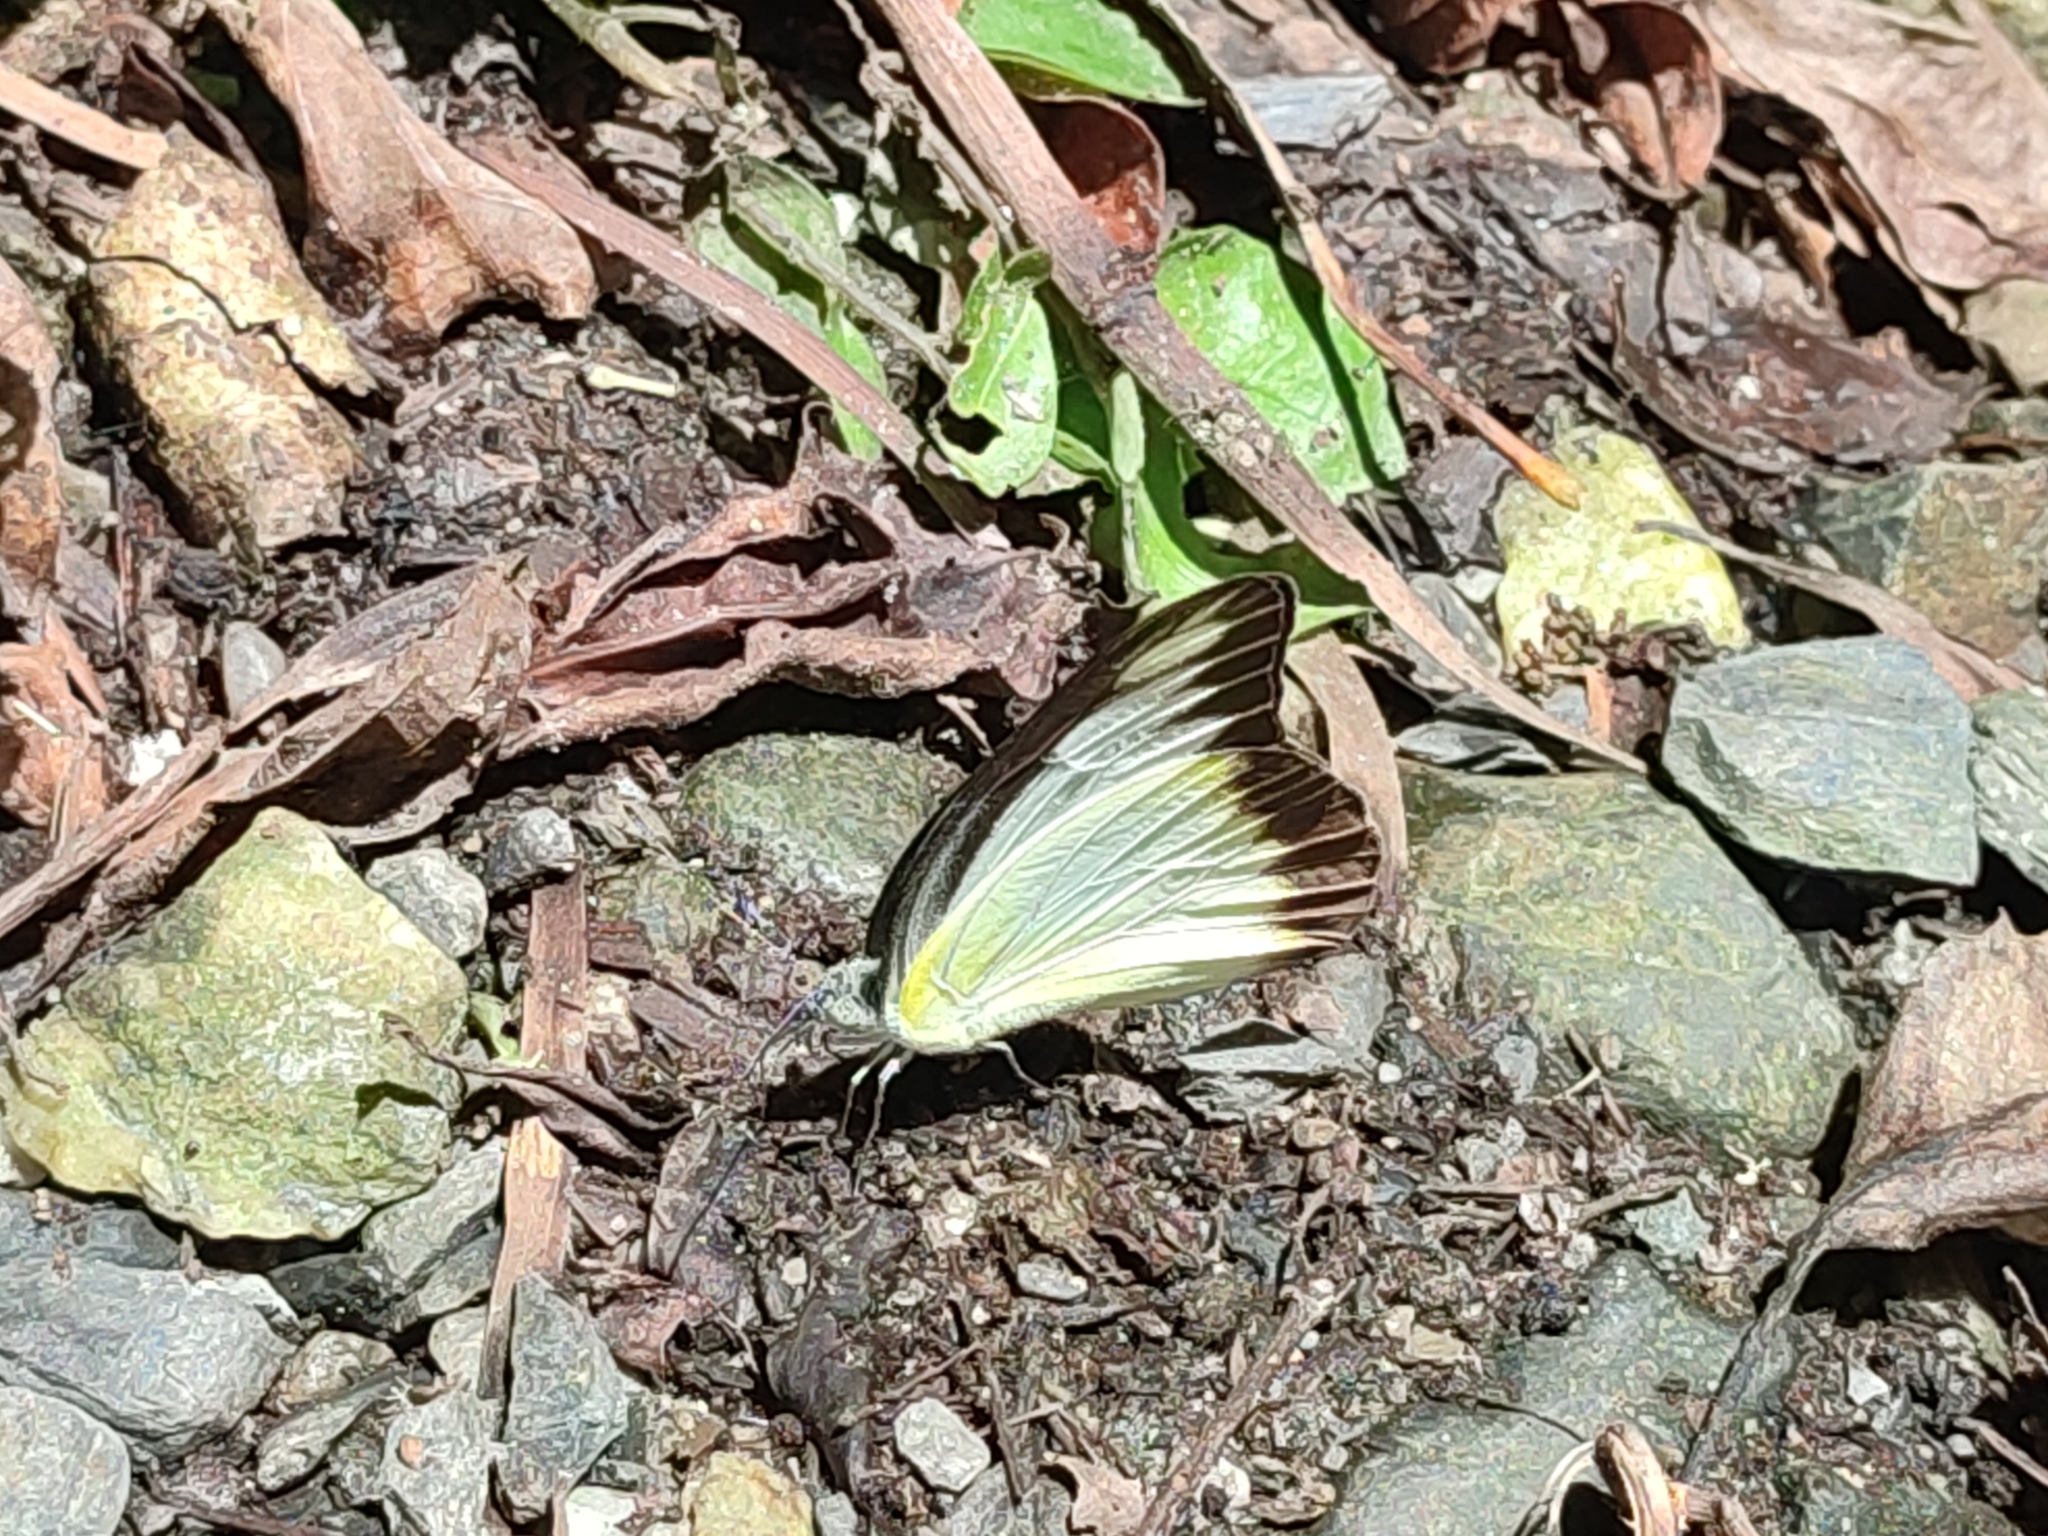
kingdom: Animalia
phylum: Arthropoda
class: Insecta
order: Lepidoptera
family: Pieridae
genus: Appias
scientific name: Appias lyncida
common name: Chocolate albatross
